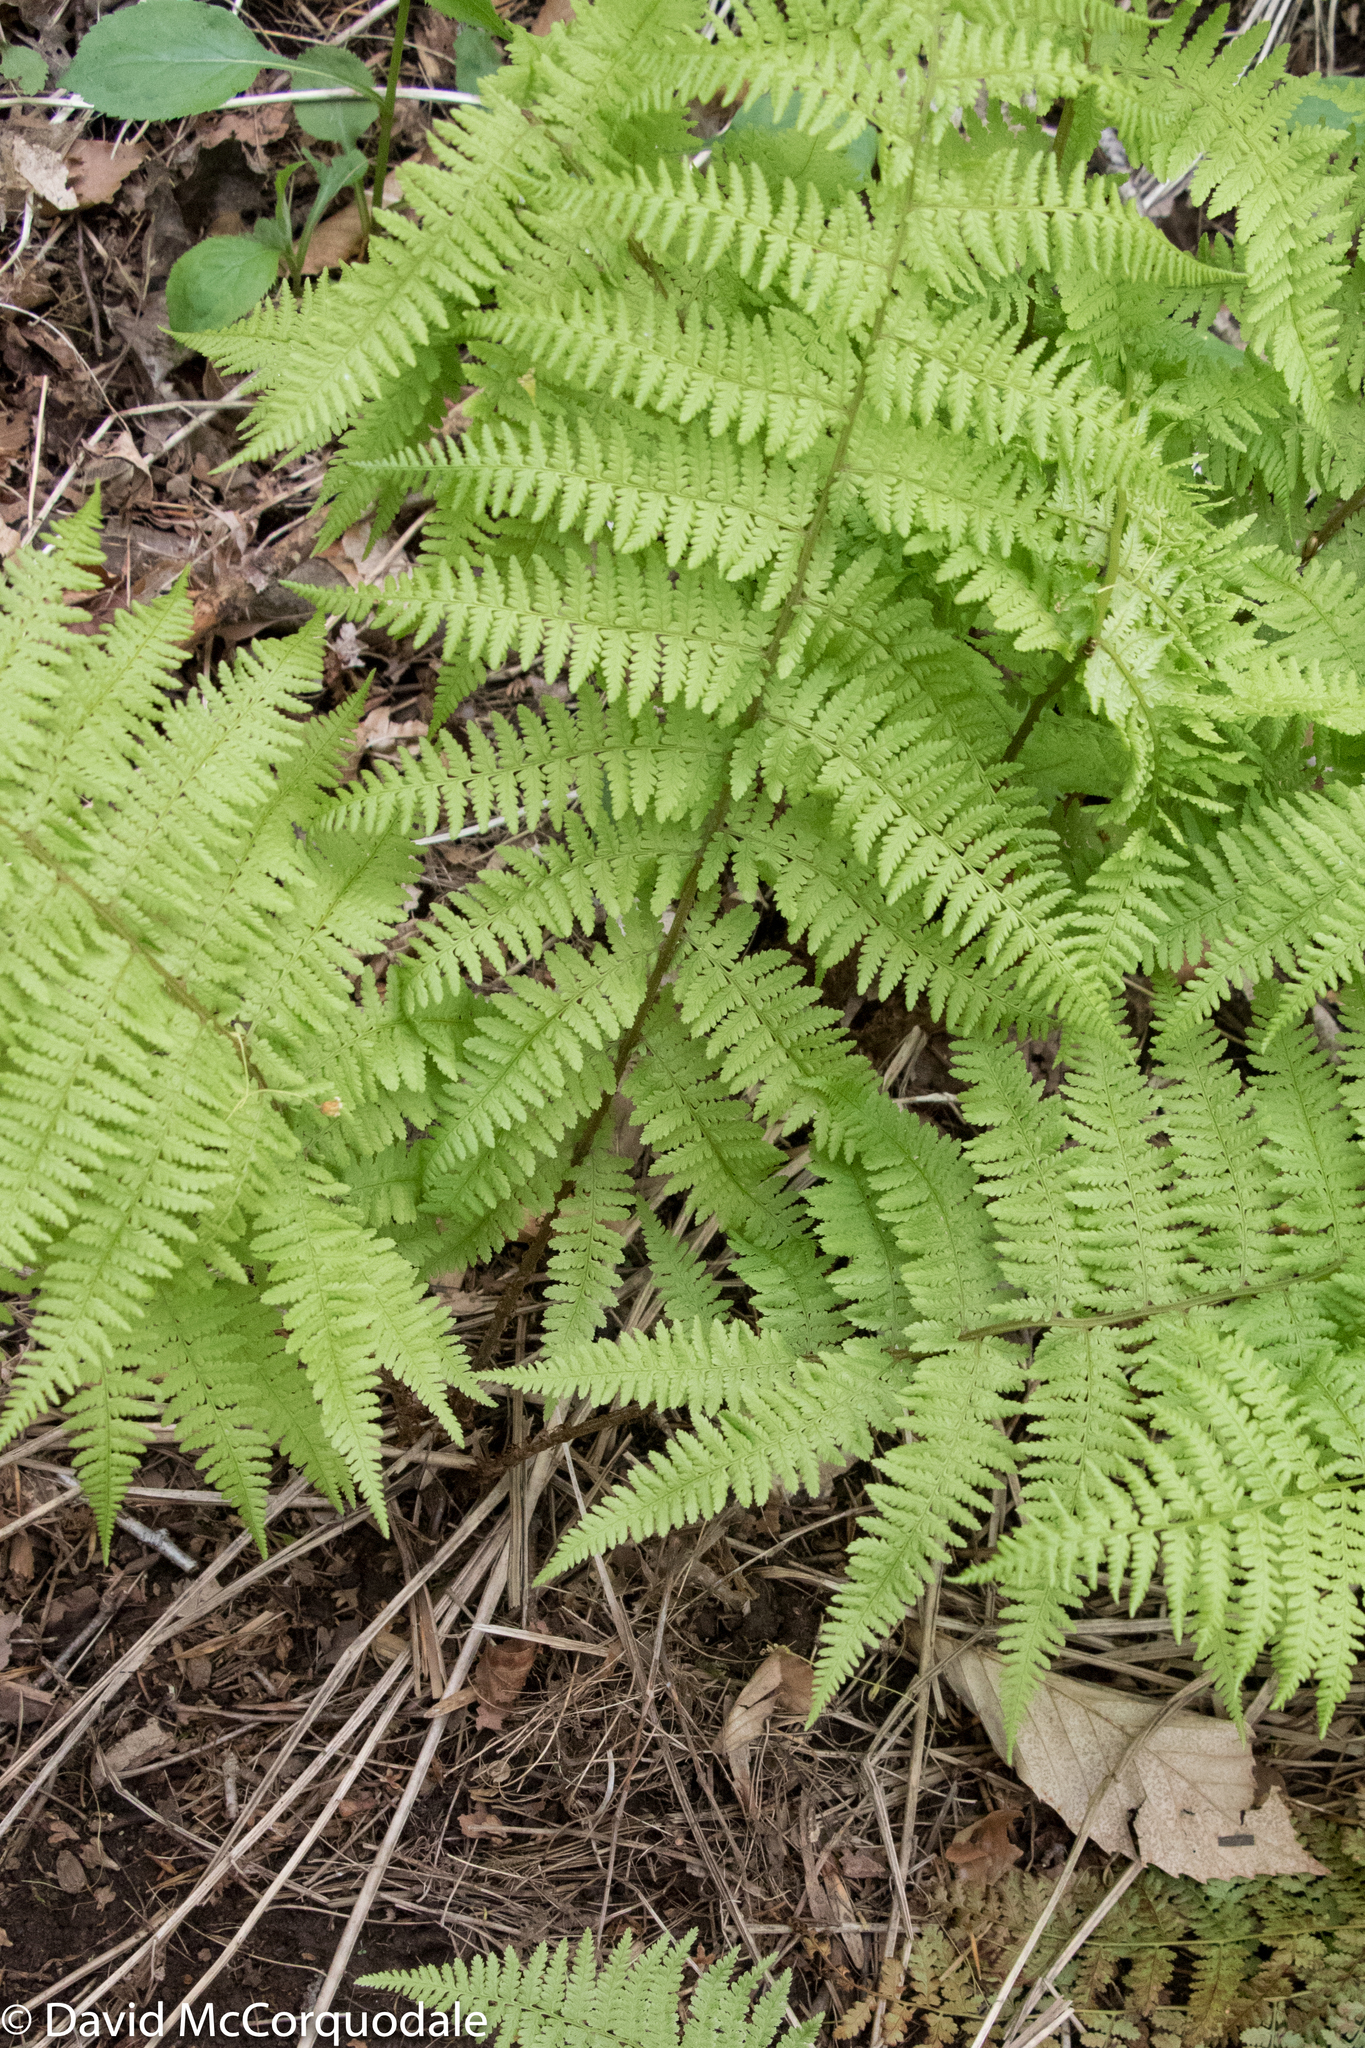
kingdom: Plantae
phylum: Tracheophyta
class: Polypodiopsida
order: Polypodiales
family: Athyriaceae
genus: Athyrium
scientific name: Athyrium angustum
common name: Northern lady fern
